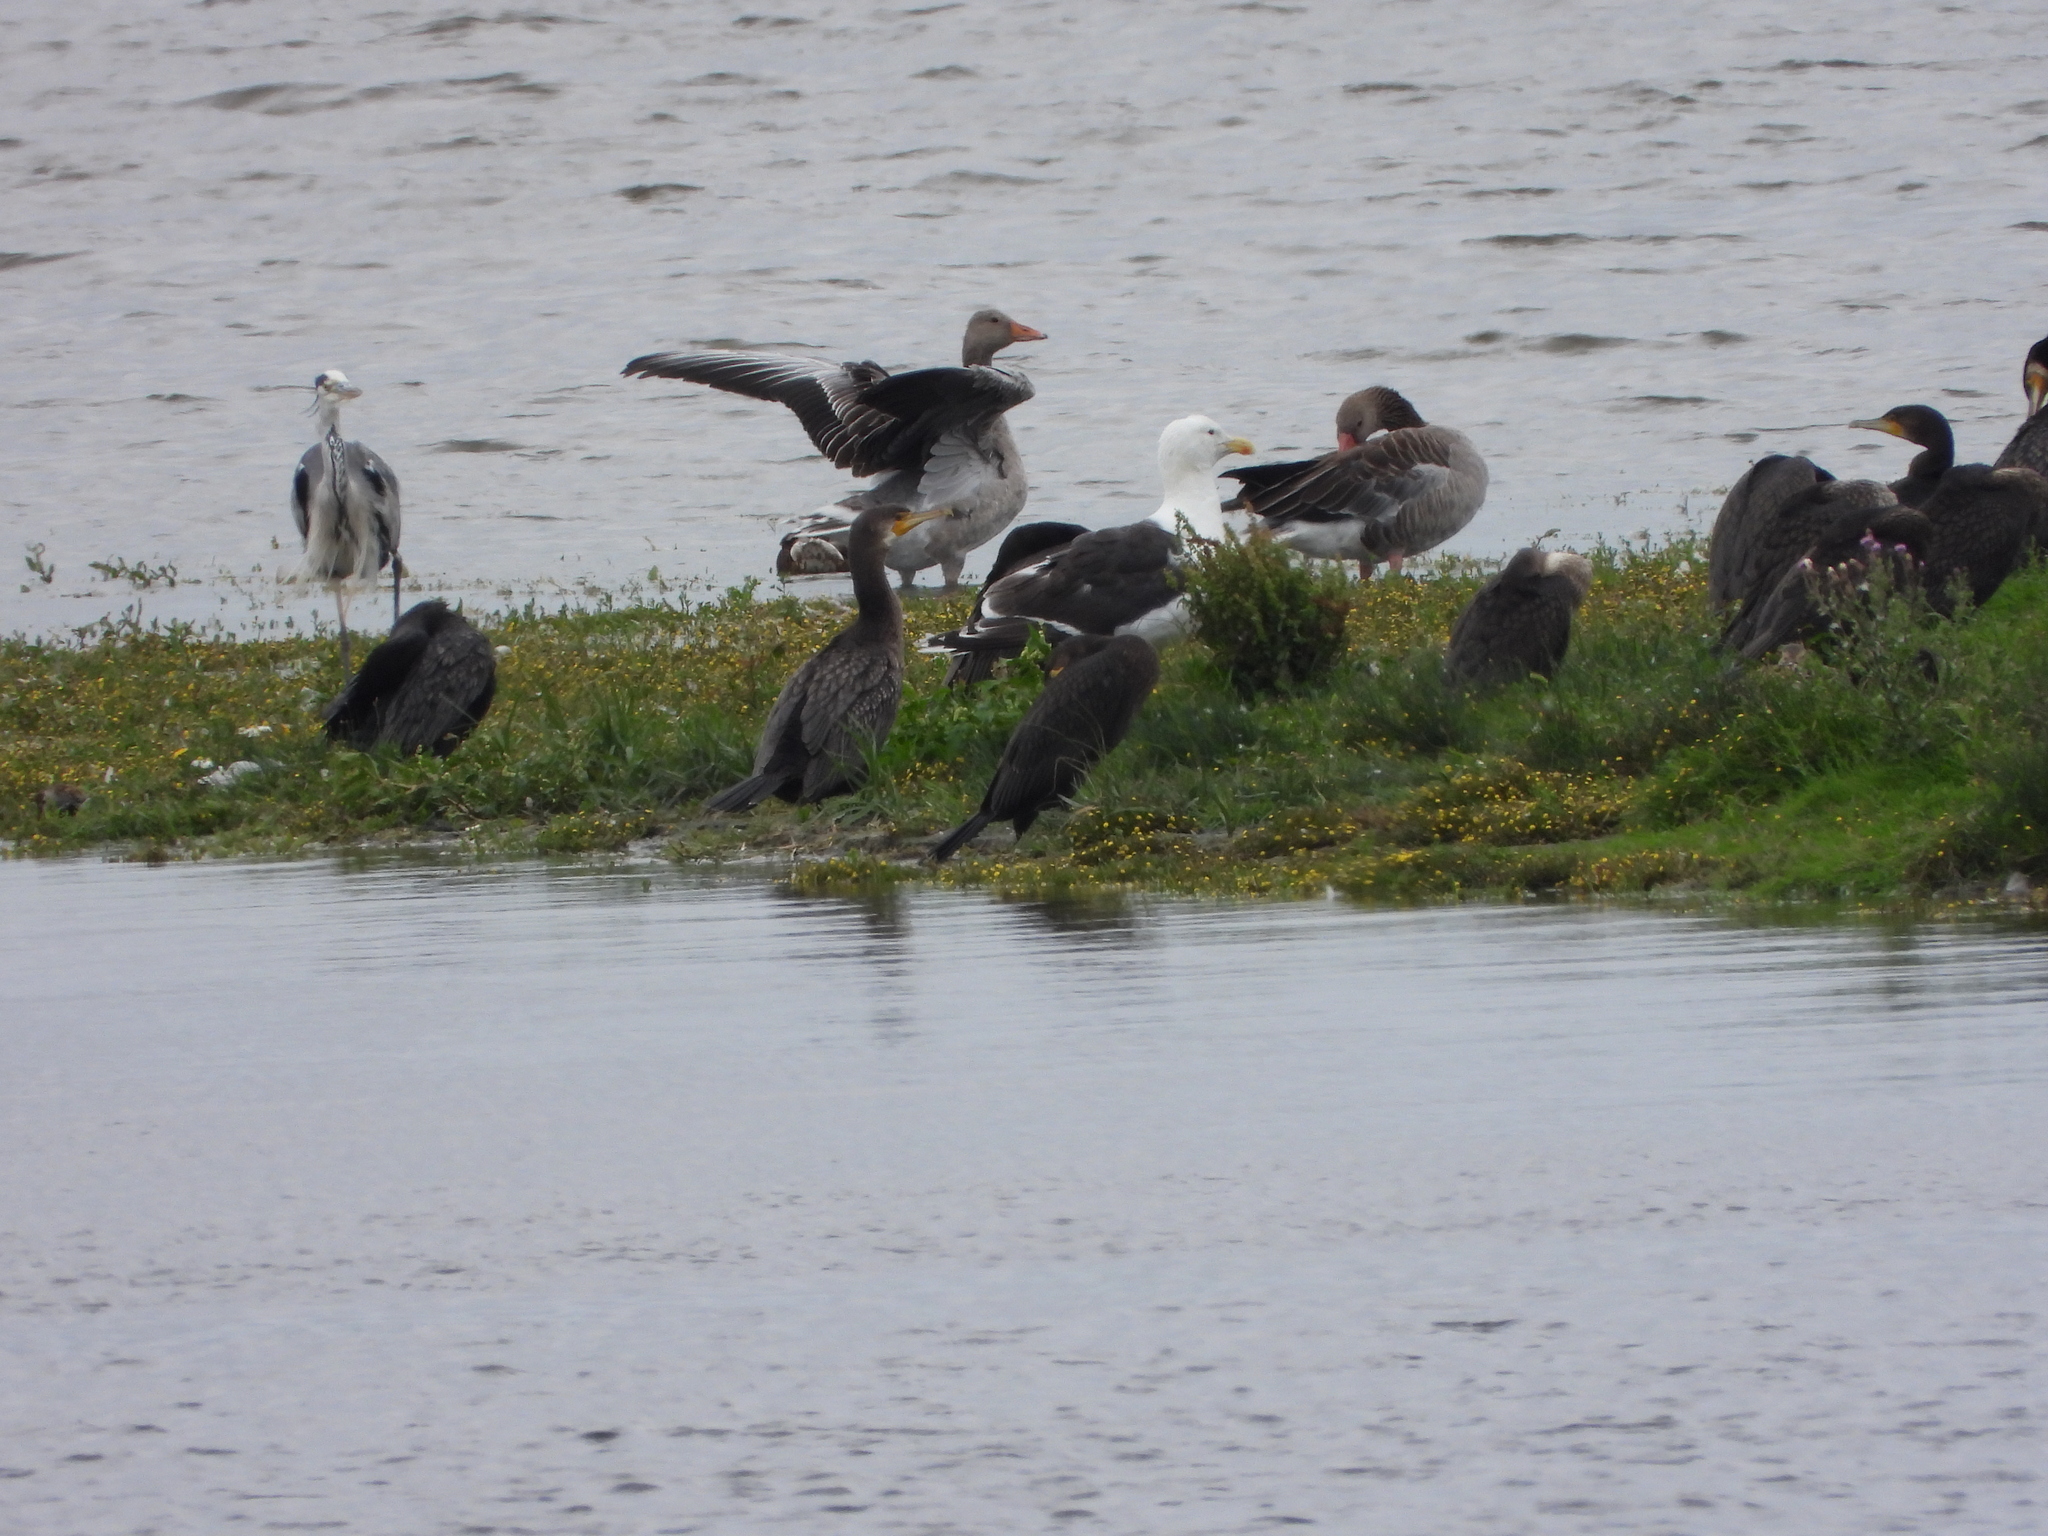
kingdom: Animalia
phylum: Chordata
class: Aves
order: Suliformes
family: Phalacrocoracidae
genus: Phalacrocorax
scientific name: Phalacrocorax carbo
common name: Great cormorant
